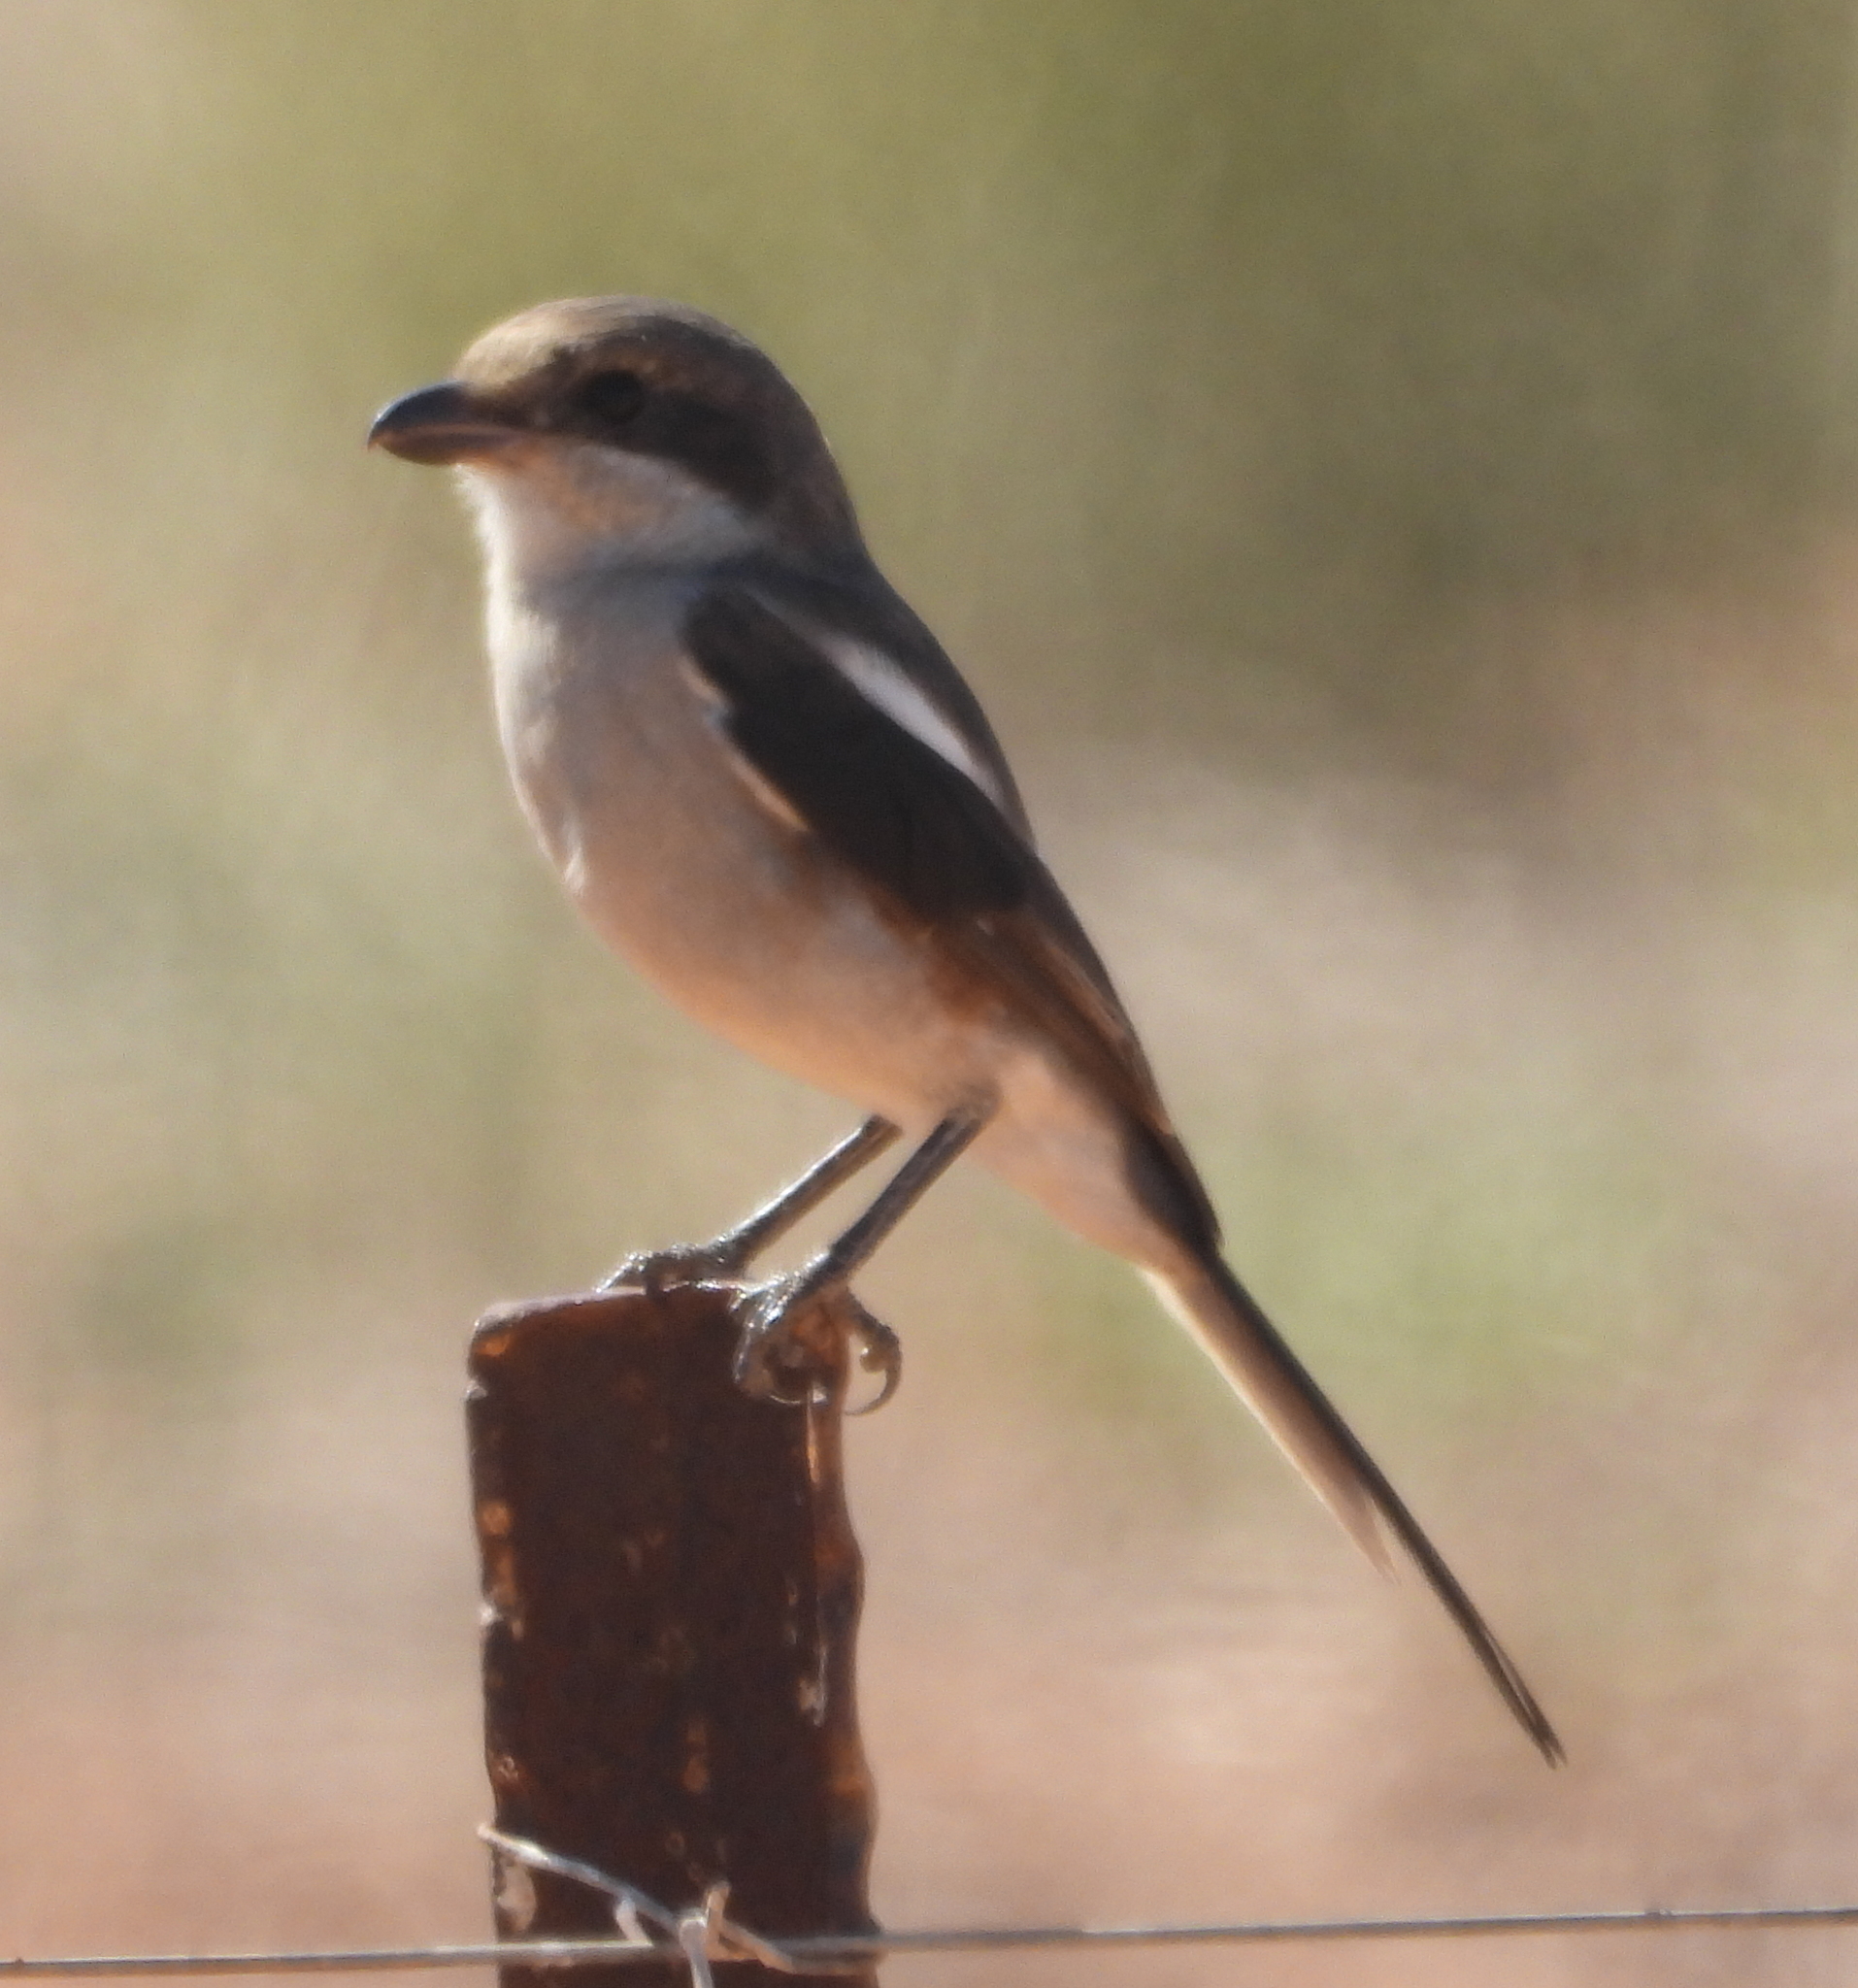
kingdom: Animalia
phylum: Chordata
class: Aves
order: Passeriformes
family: Laniidae
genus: Lanius
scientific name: Lanius collaris
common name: Southern fiscal
